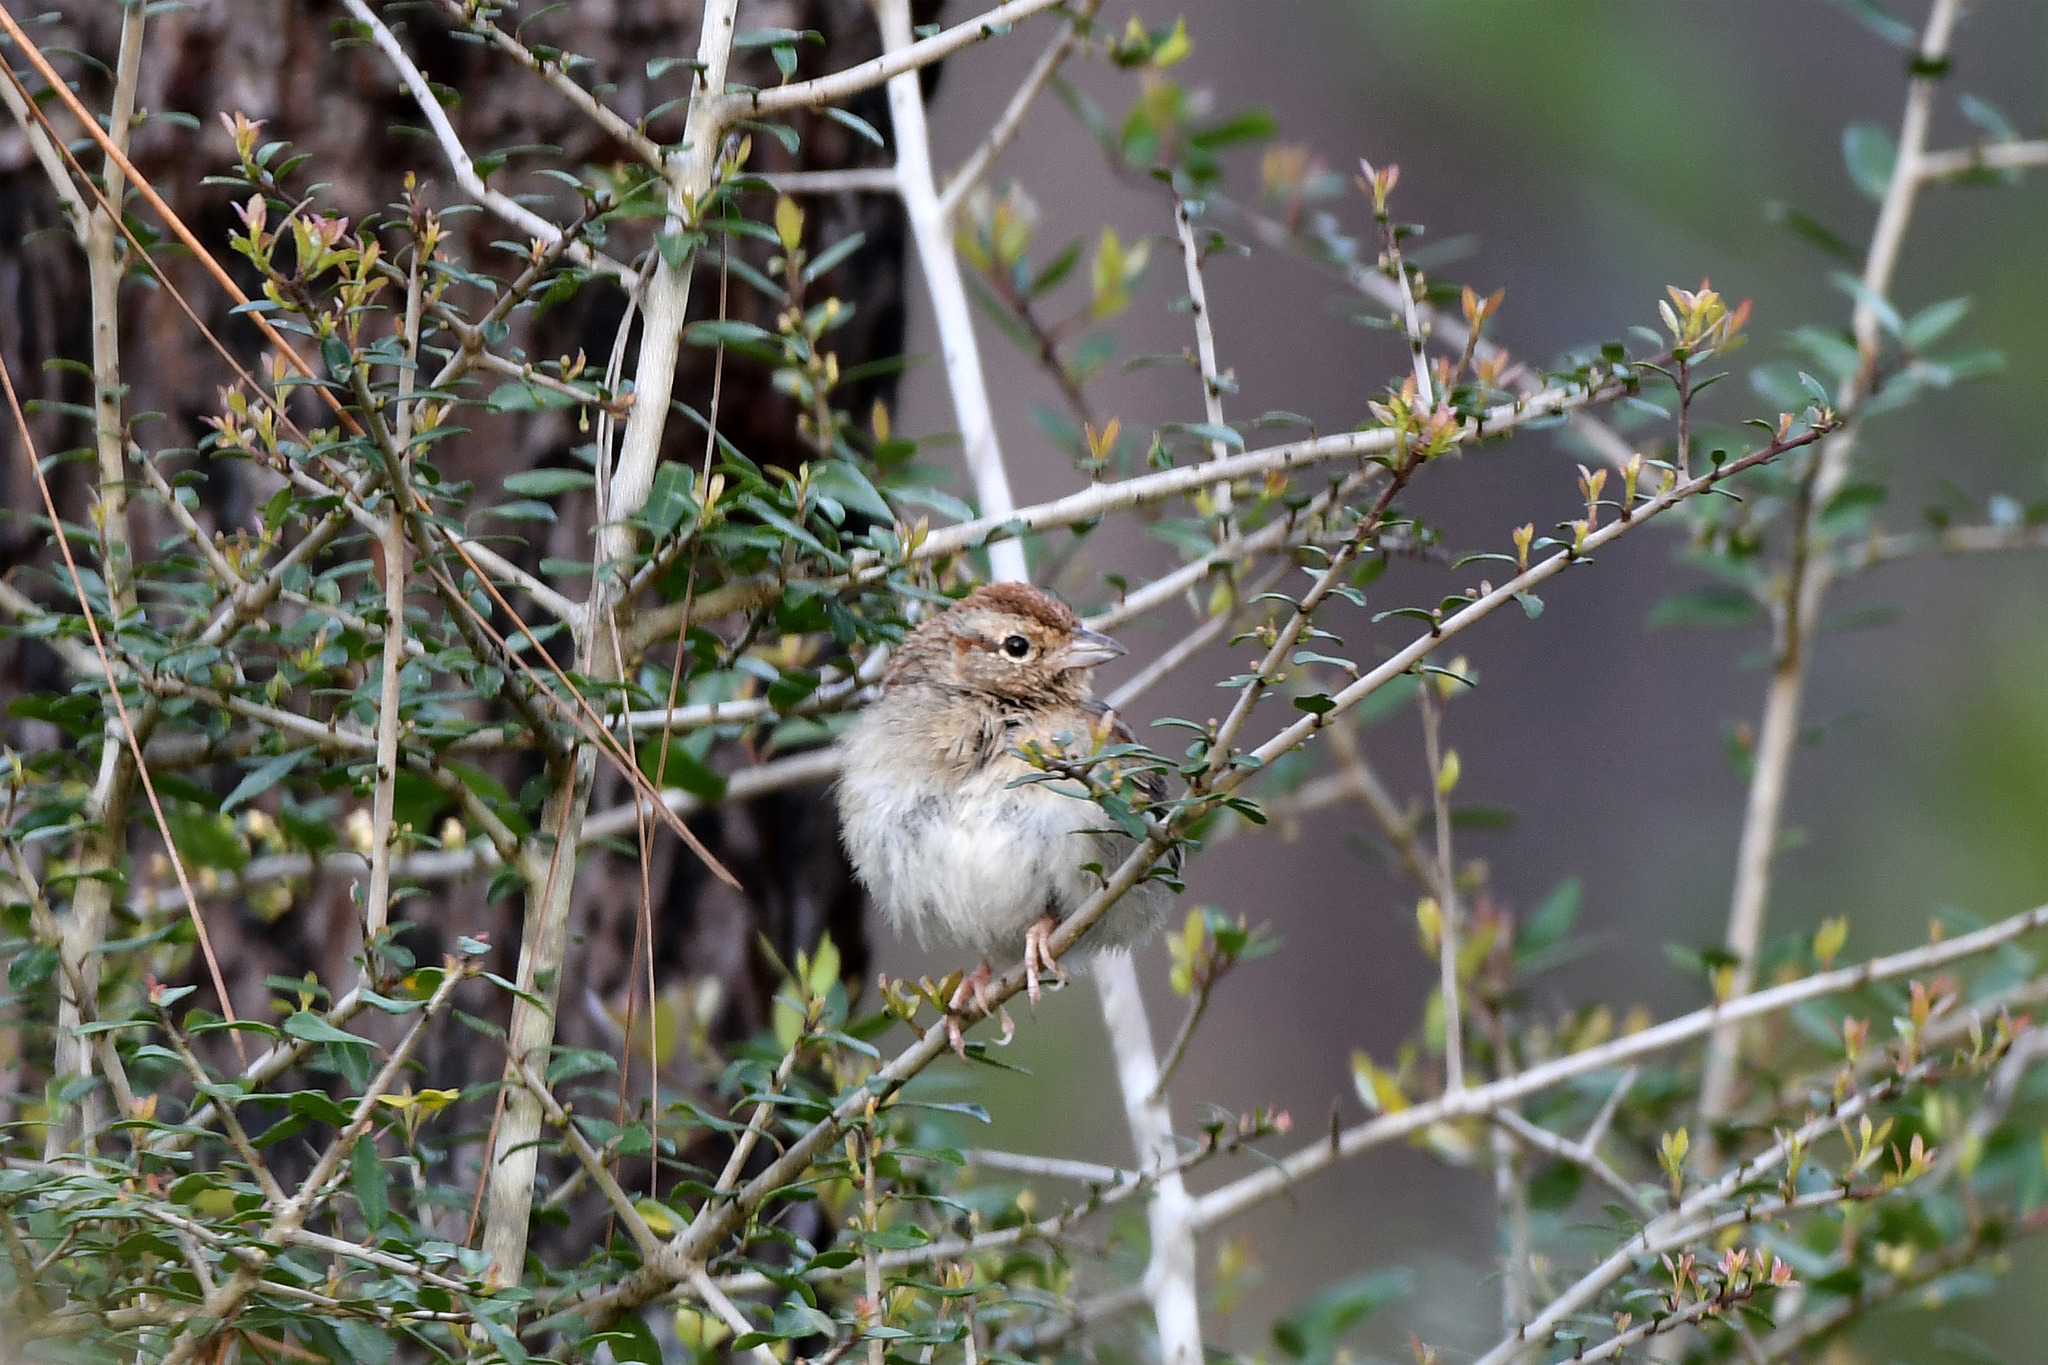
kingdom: Animalia
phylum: Chordata
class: Aves
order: Passeriformes
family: Passerellidae
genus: Peucaea
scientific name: Peucaea aestivalis
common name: Bachman's sparrow
